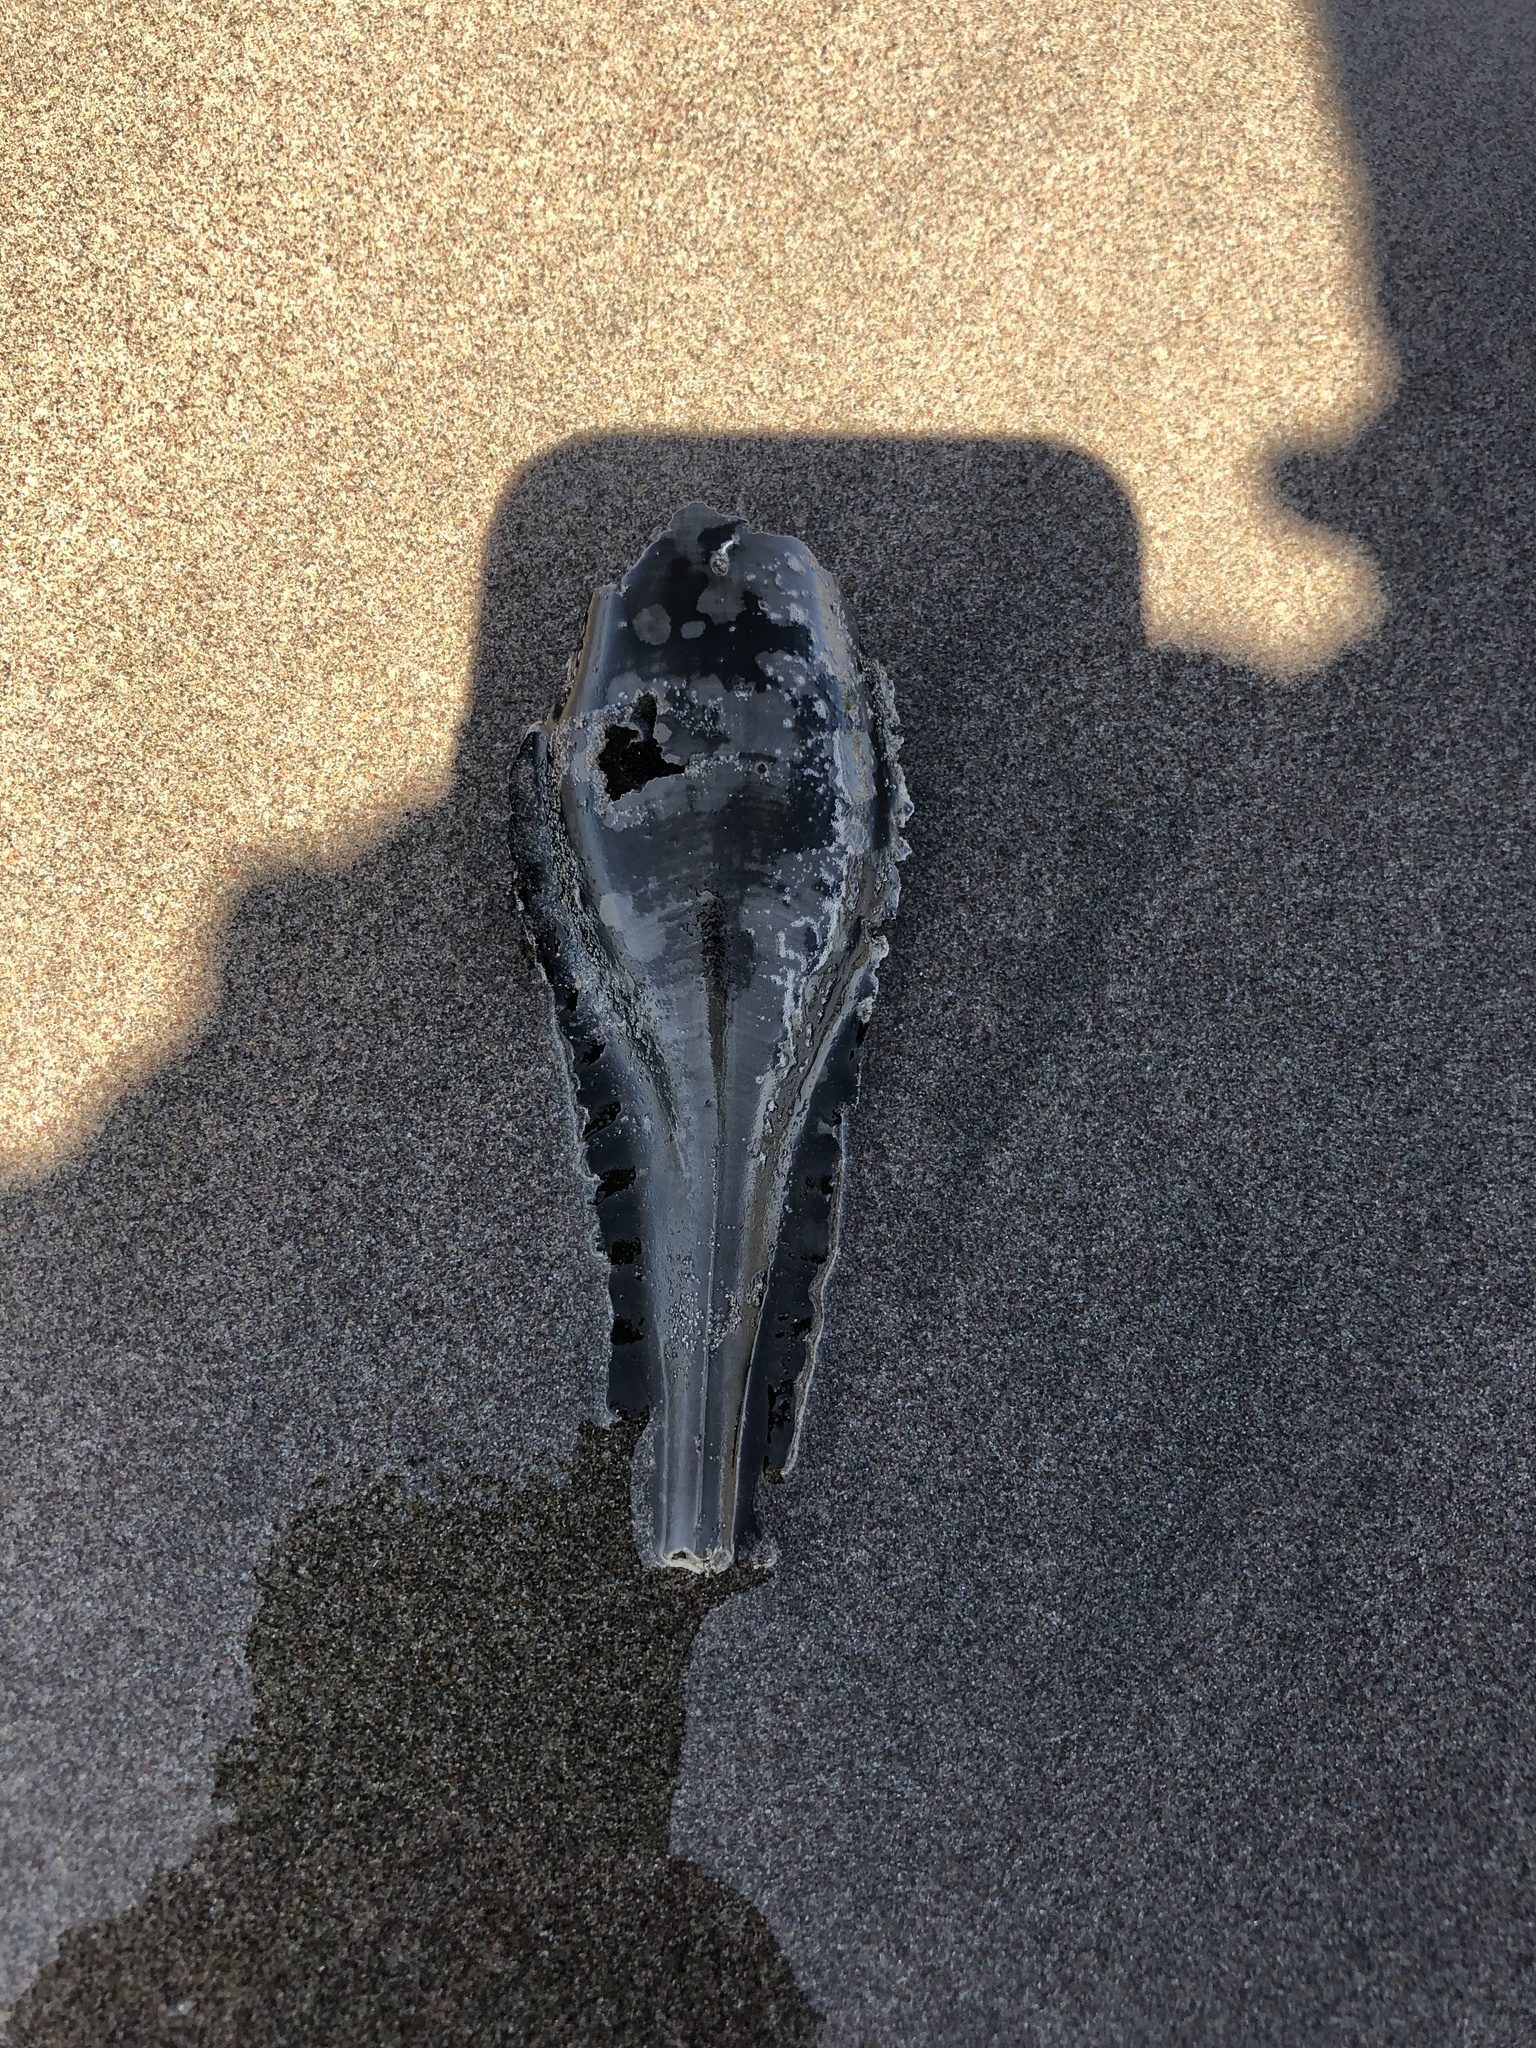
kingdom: Animalia
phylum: Chordata
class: Holocephali
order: Chimaeriformes
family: Callorhinchidae
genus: Callorhinchus
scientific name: Callorhinchus callorynchus
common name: Elephant fish
